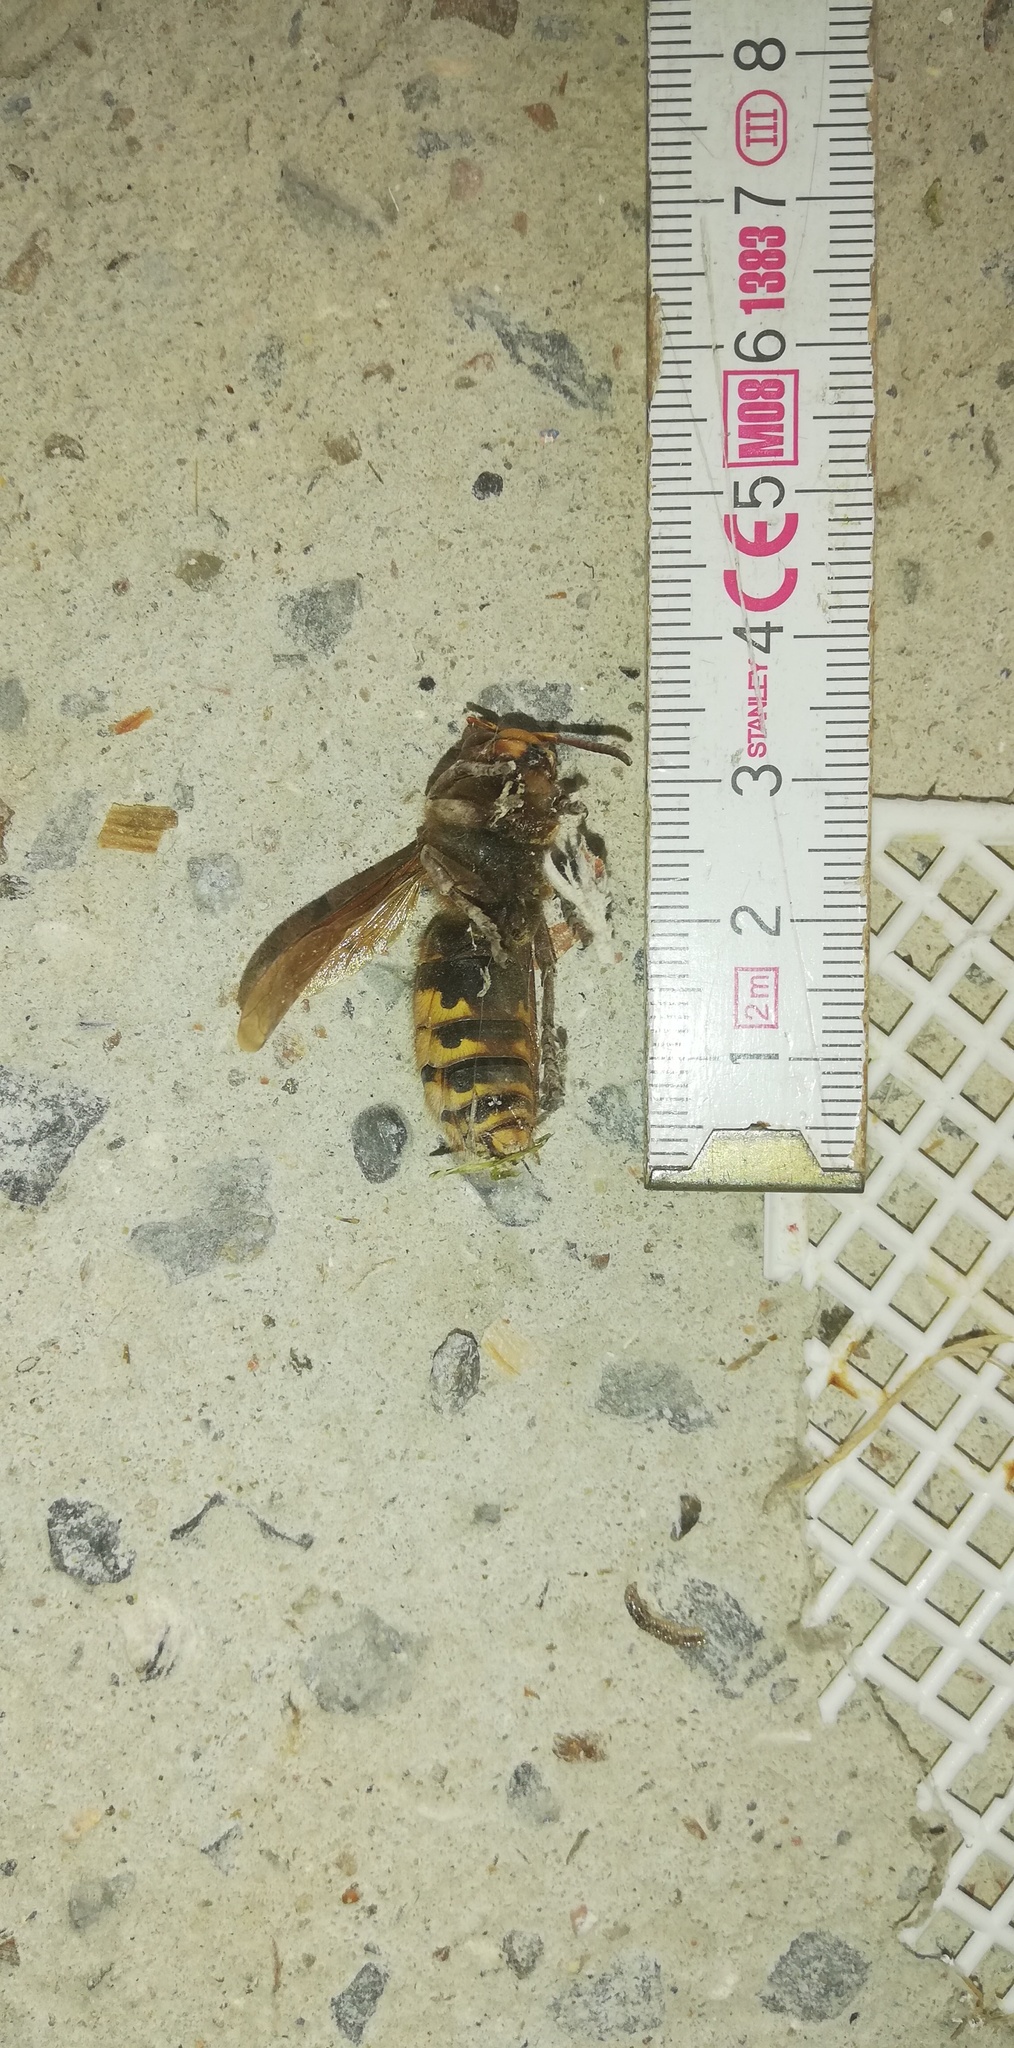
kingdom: Animalia
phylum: Arthropoda
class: Insecta
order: Hymenoptera
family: Vespidae
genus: Vespa
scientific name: Vespa crabro
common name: Hornet
